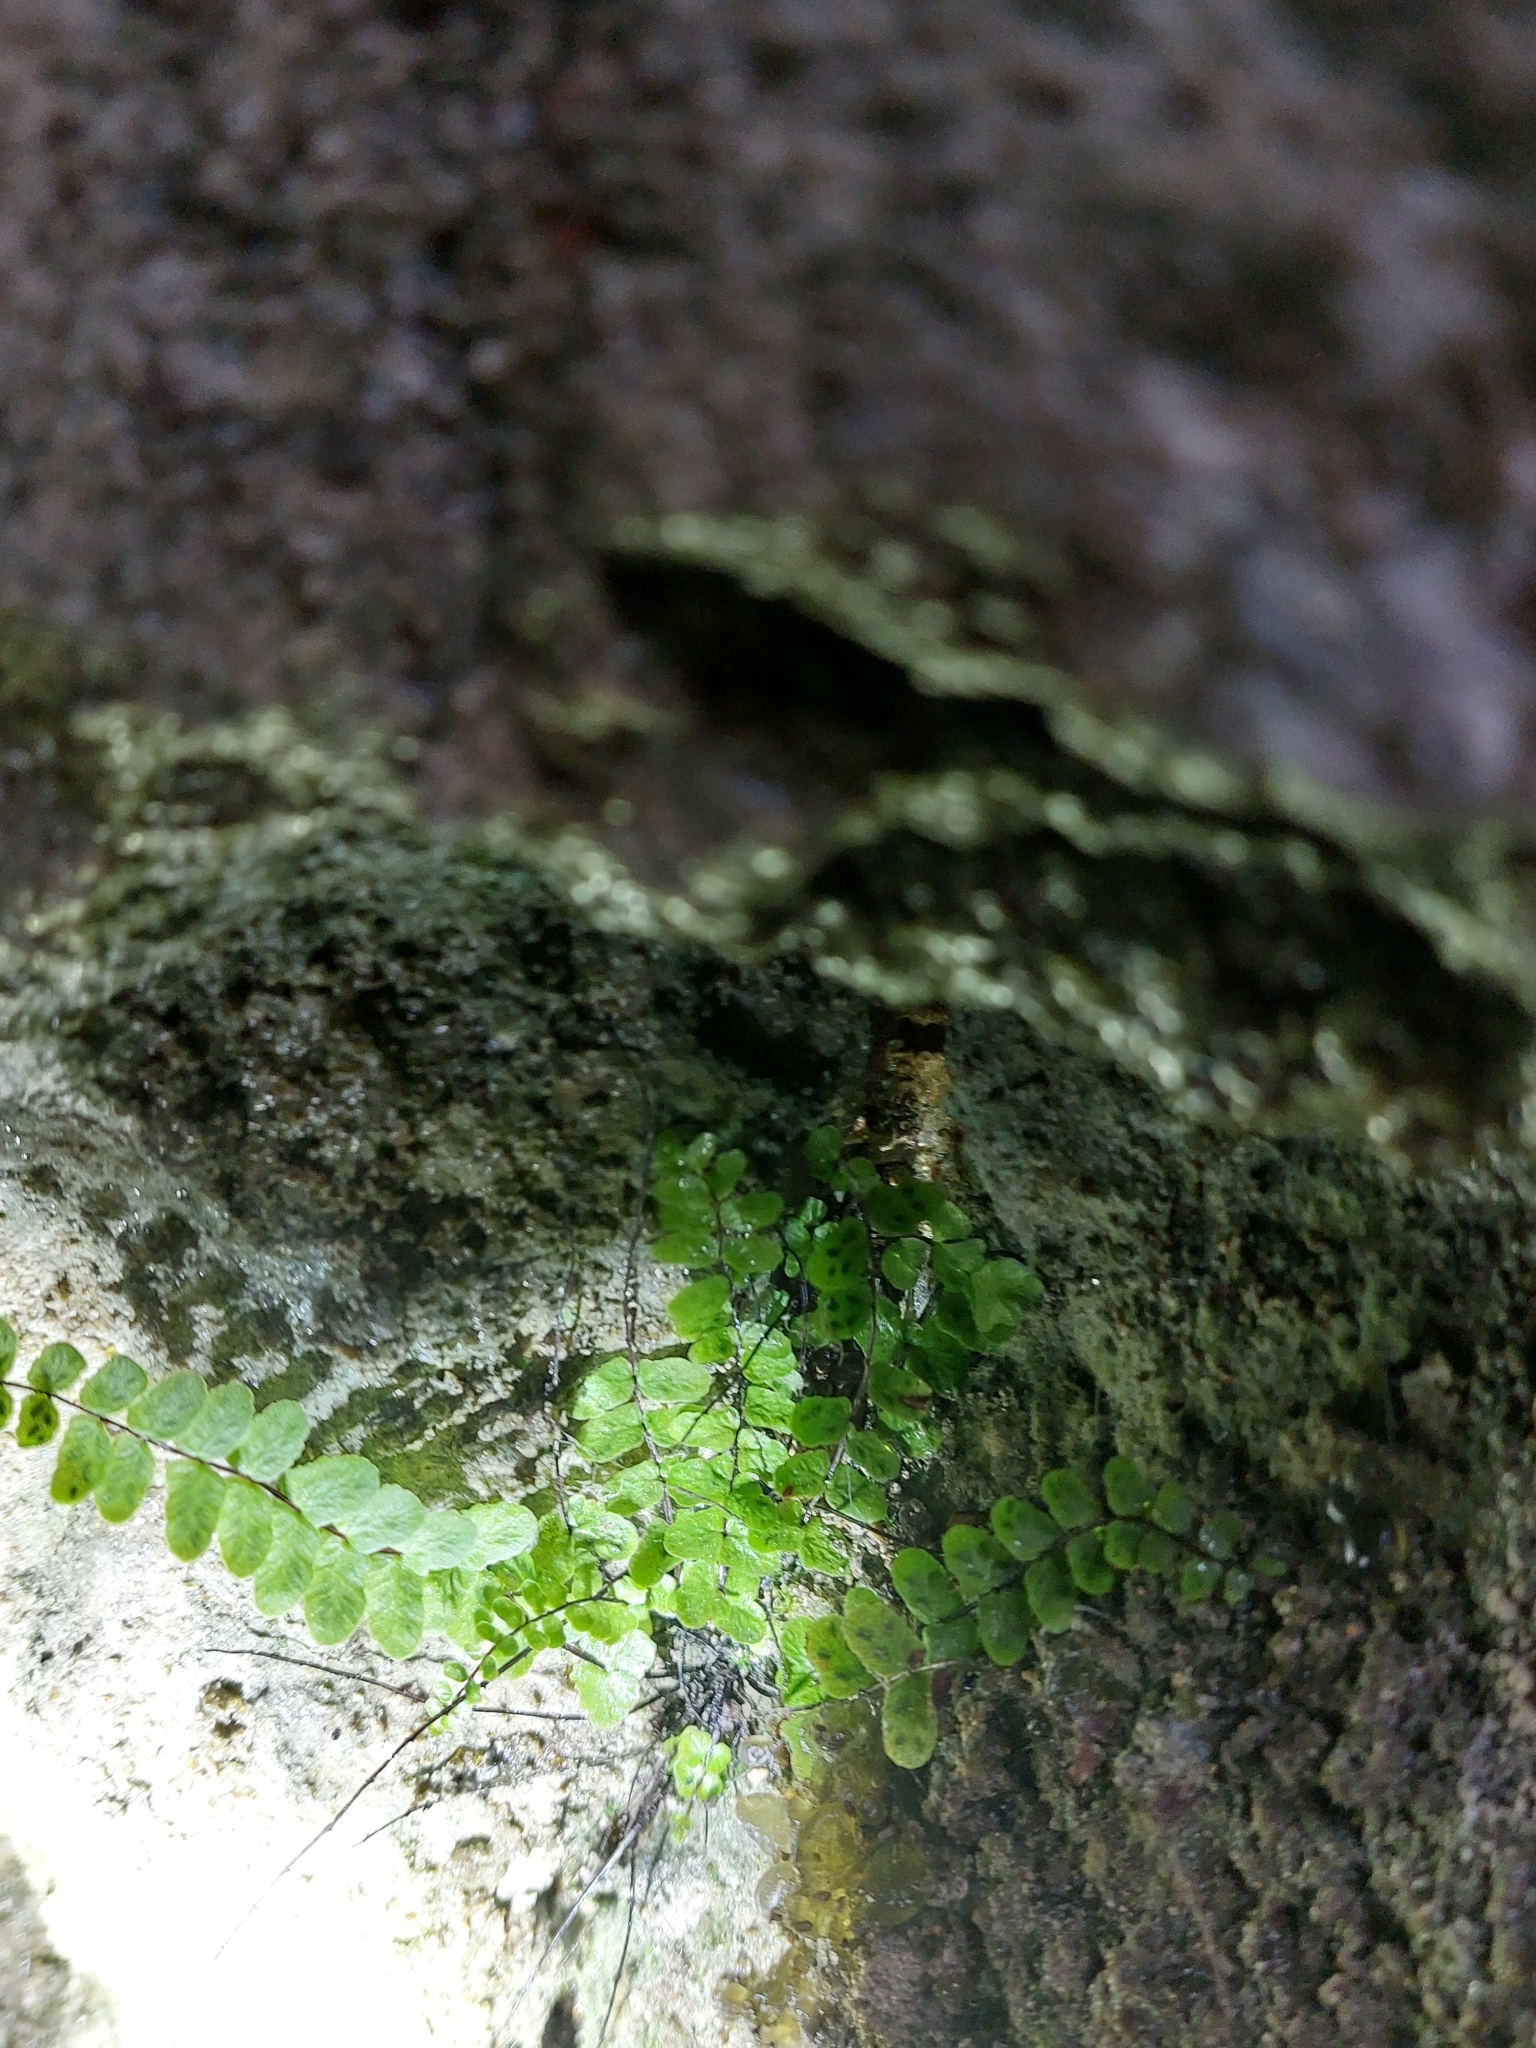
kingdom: Plantae
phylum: Tracheophyta
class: Polypodiopsida
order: Polypodiales
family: Aspleniaceae
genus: Asplenium
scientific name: Asplenium trichomanes
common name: Maidenhair spleenwort
